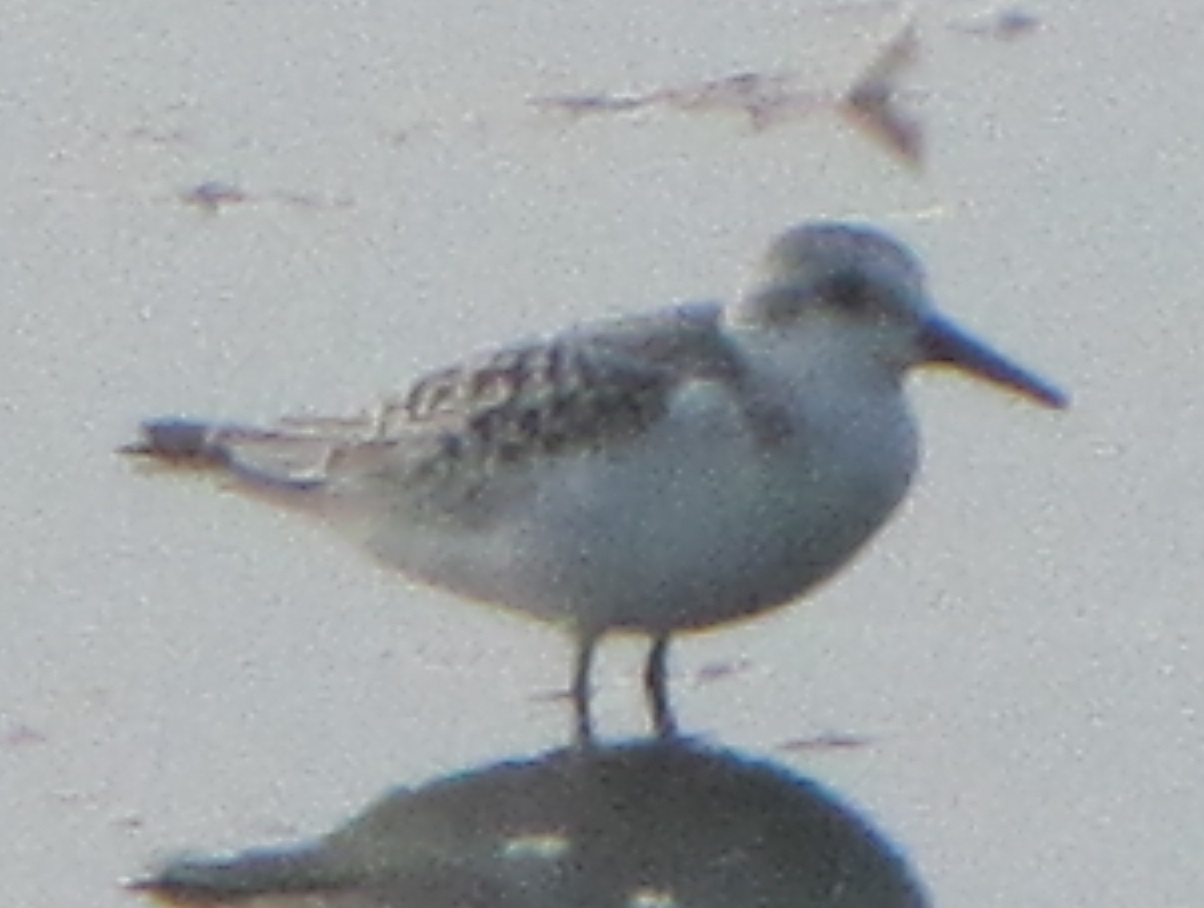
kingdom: Animalia
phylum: Chordata
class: Aves
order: Charadriiformes
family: Scolopacidae
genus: Calidris
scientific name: Calidris alba
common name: Sanderling
